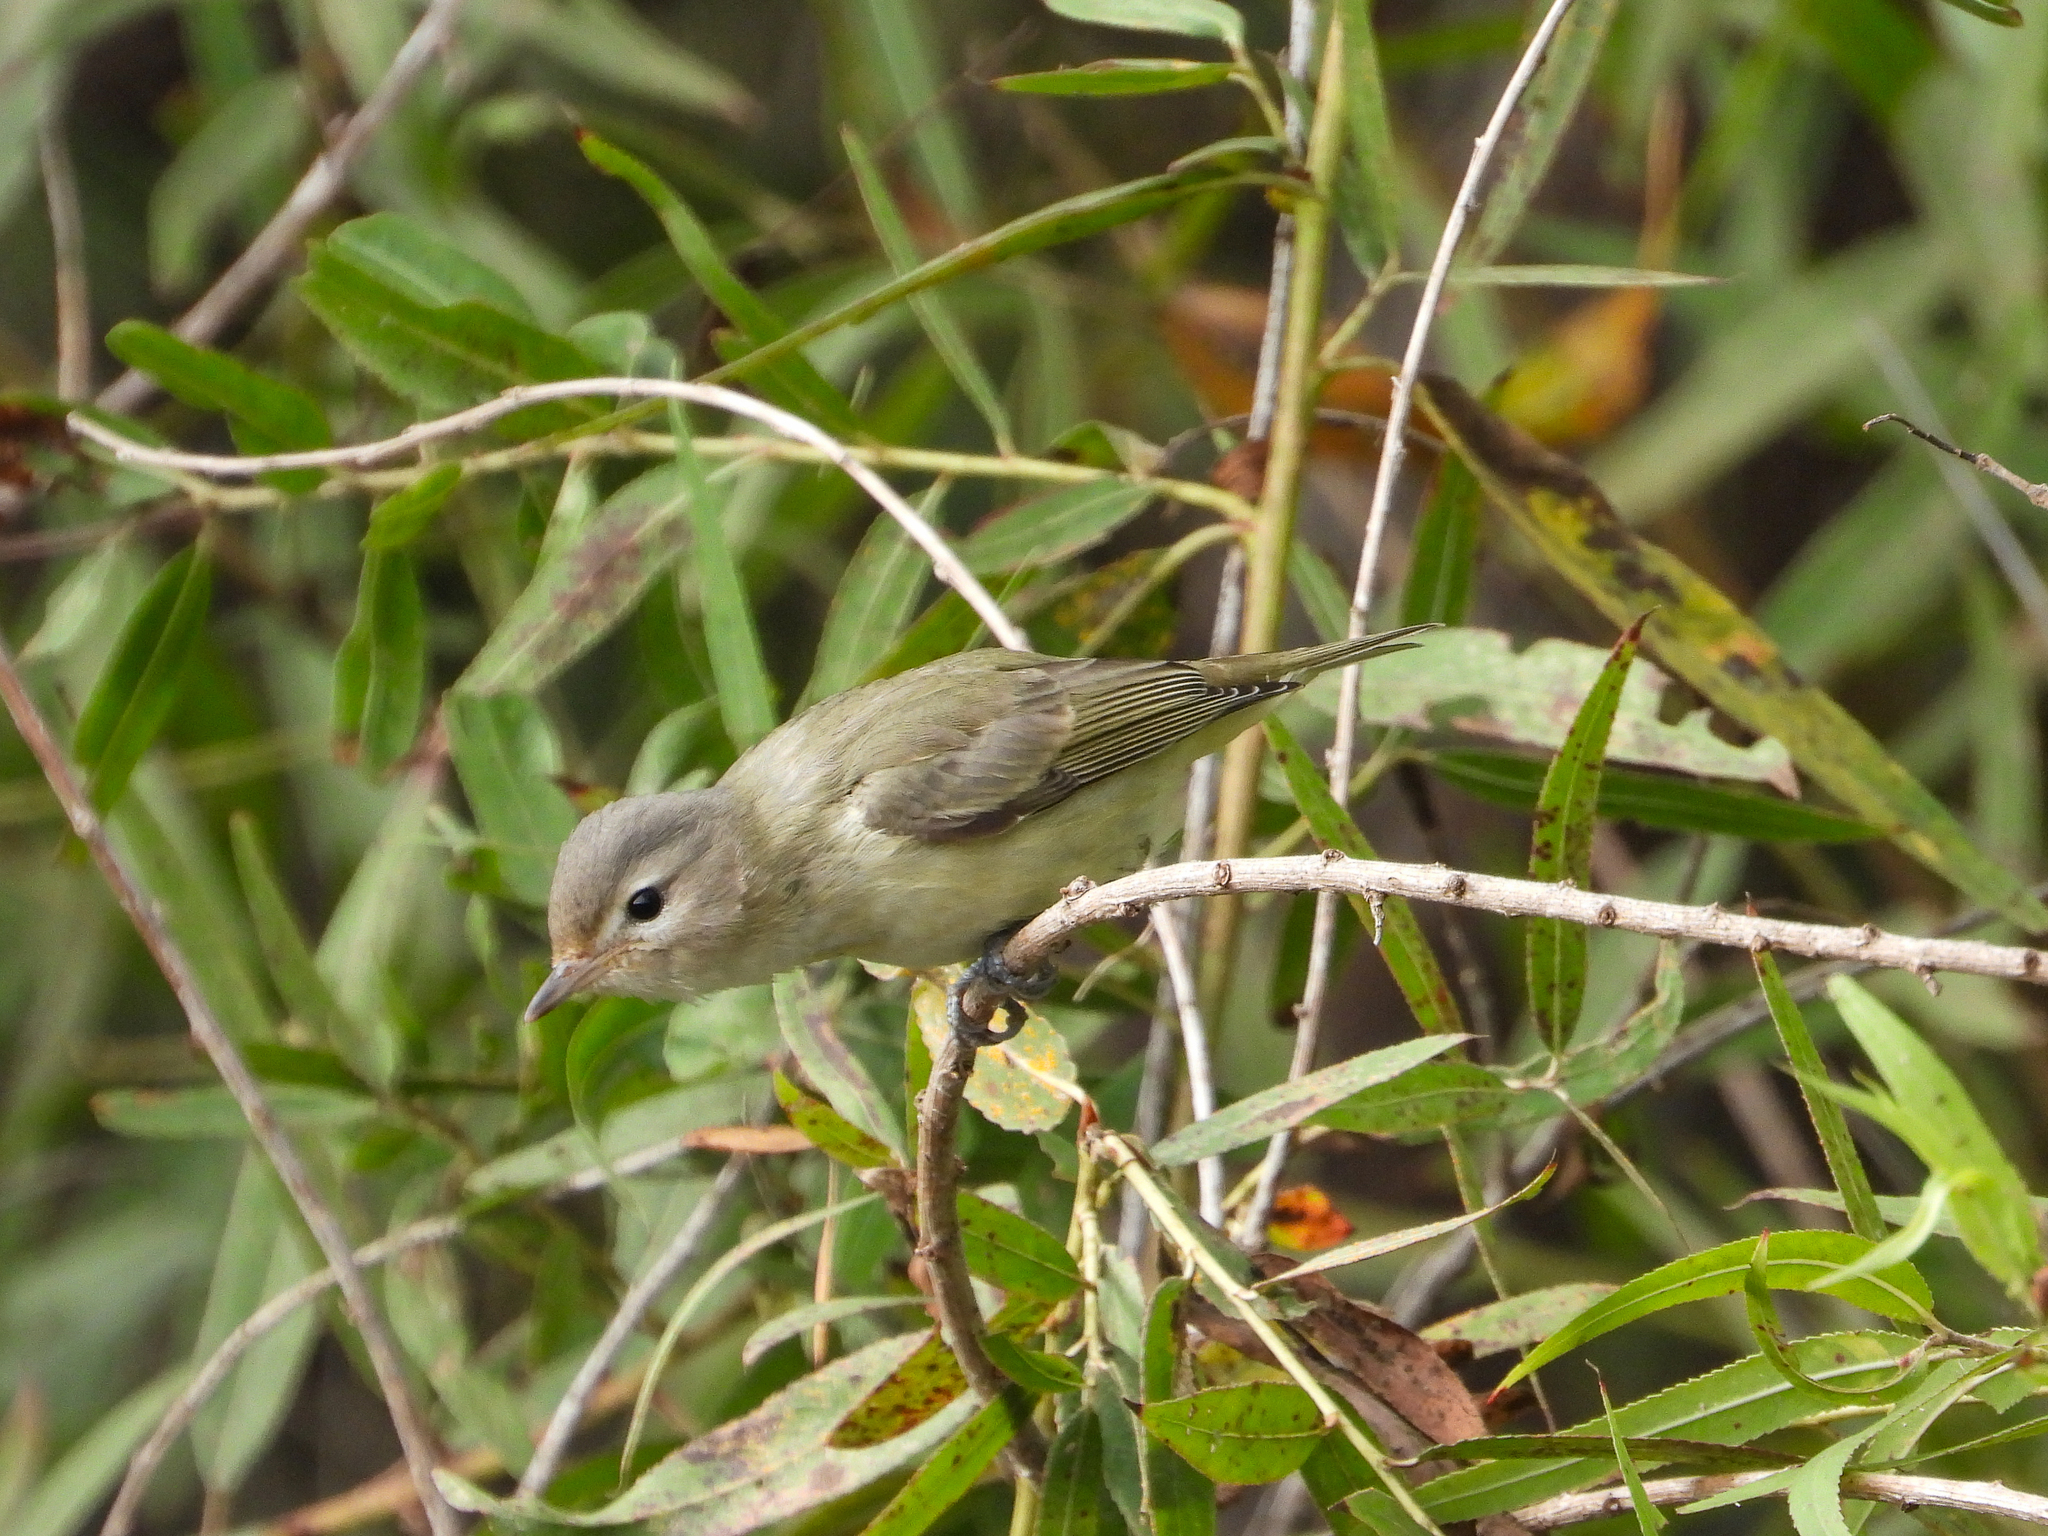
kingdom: Animalia
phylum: Chordata
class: Aves
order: Passeriformes
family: Vireonidae
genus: Vireo
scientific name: Vireo gilvus
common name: Warbling vireo
